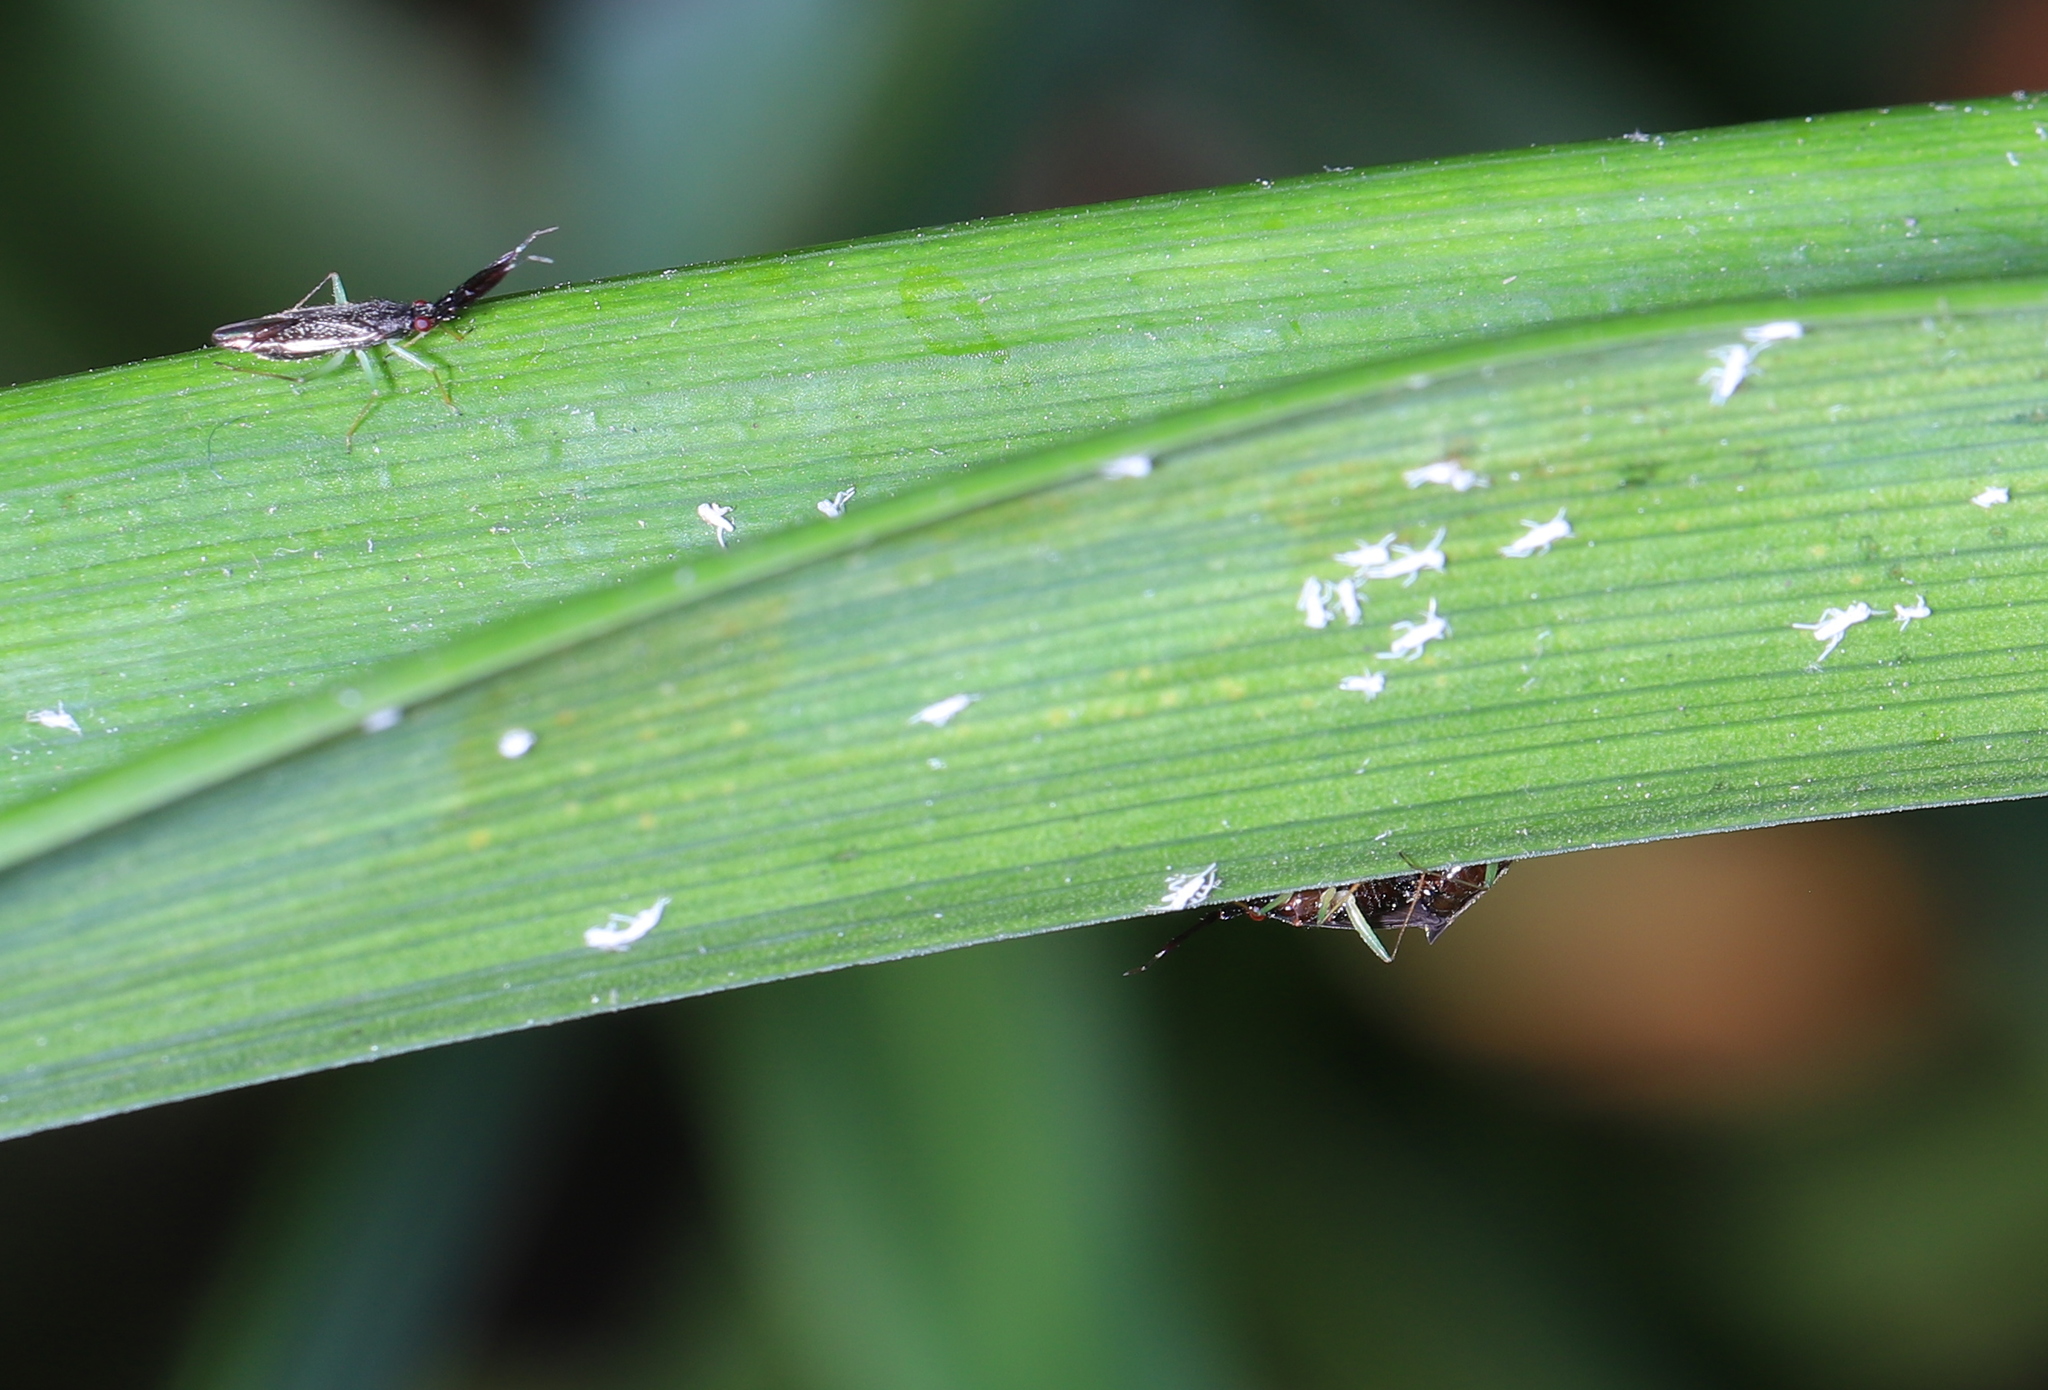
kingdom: Animalia
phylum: Arthropoda
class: Insecta
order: Hemiptera
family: Miridae
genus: Heterotoma
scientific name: Heterotoma planicornis
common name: Plant bug
